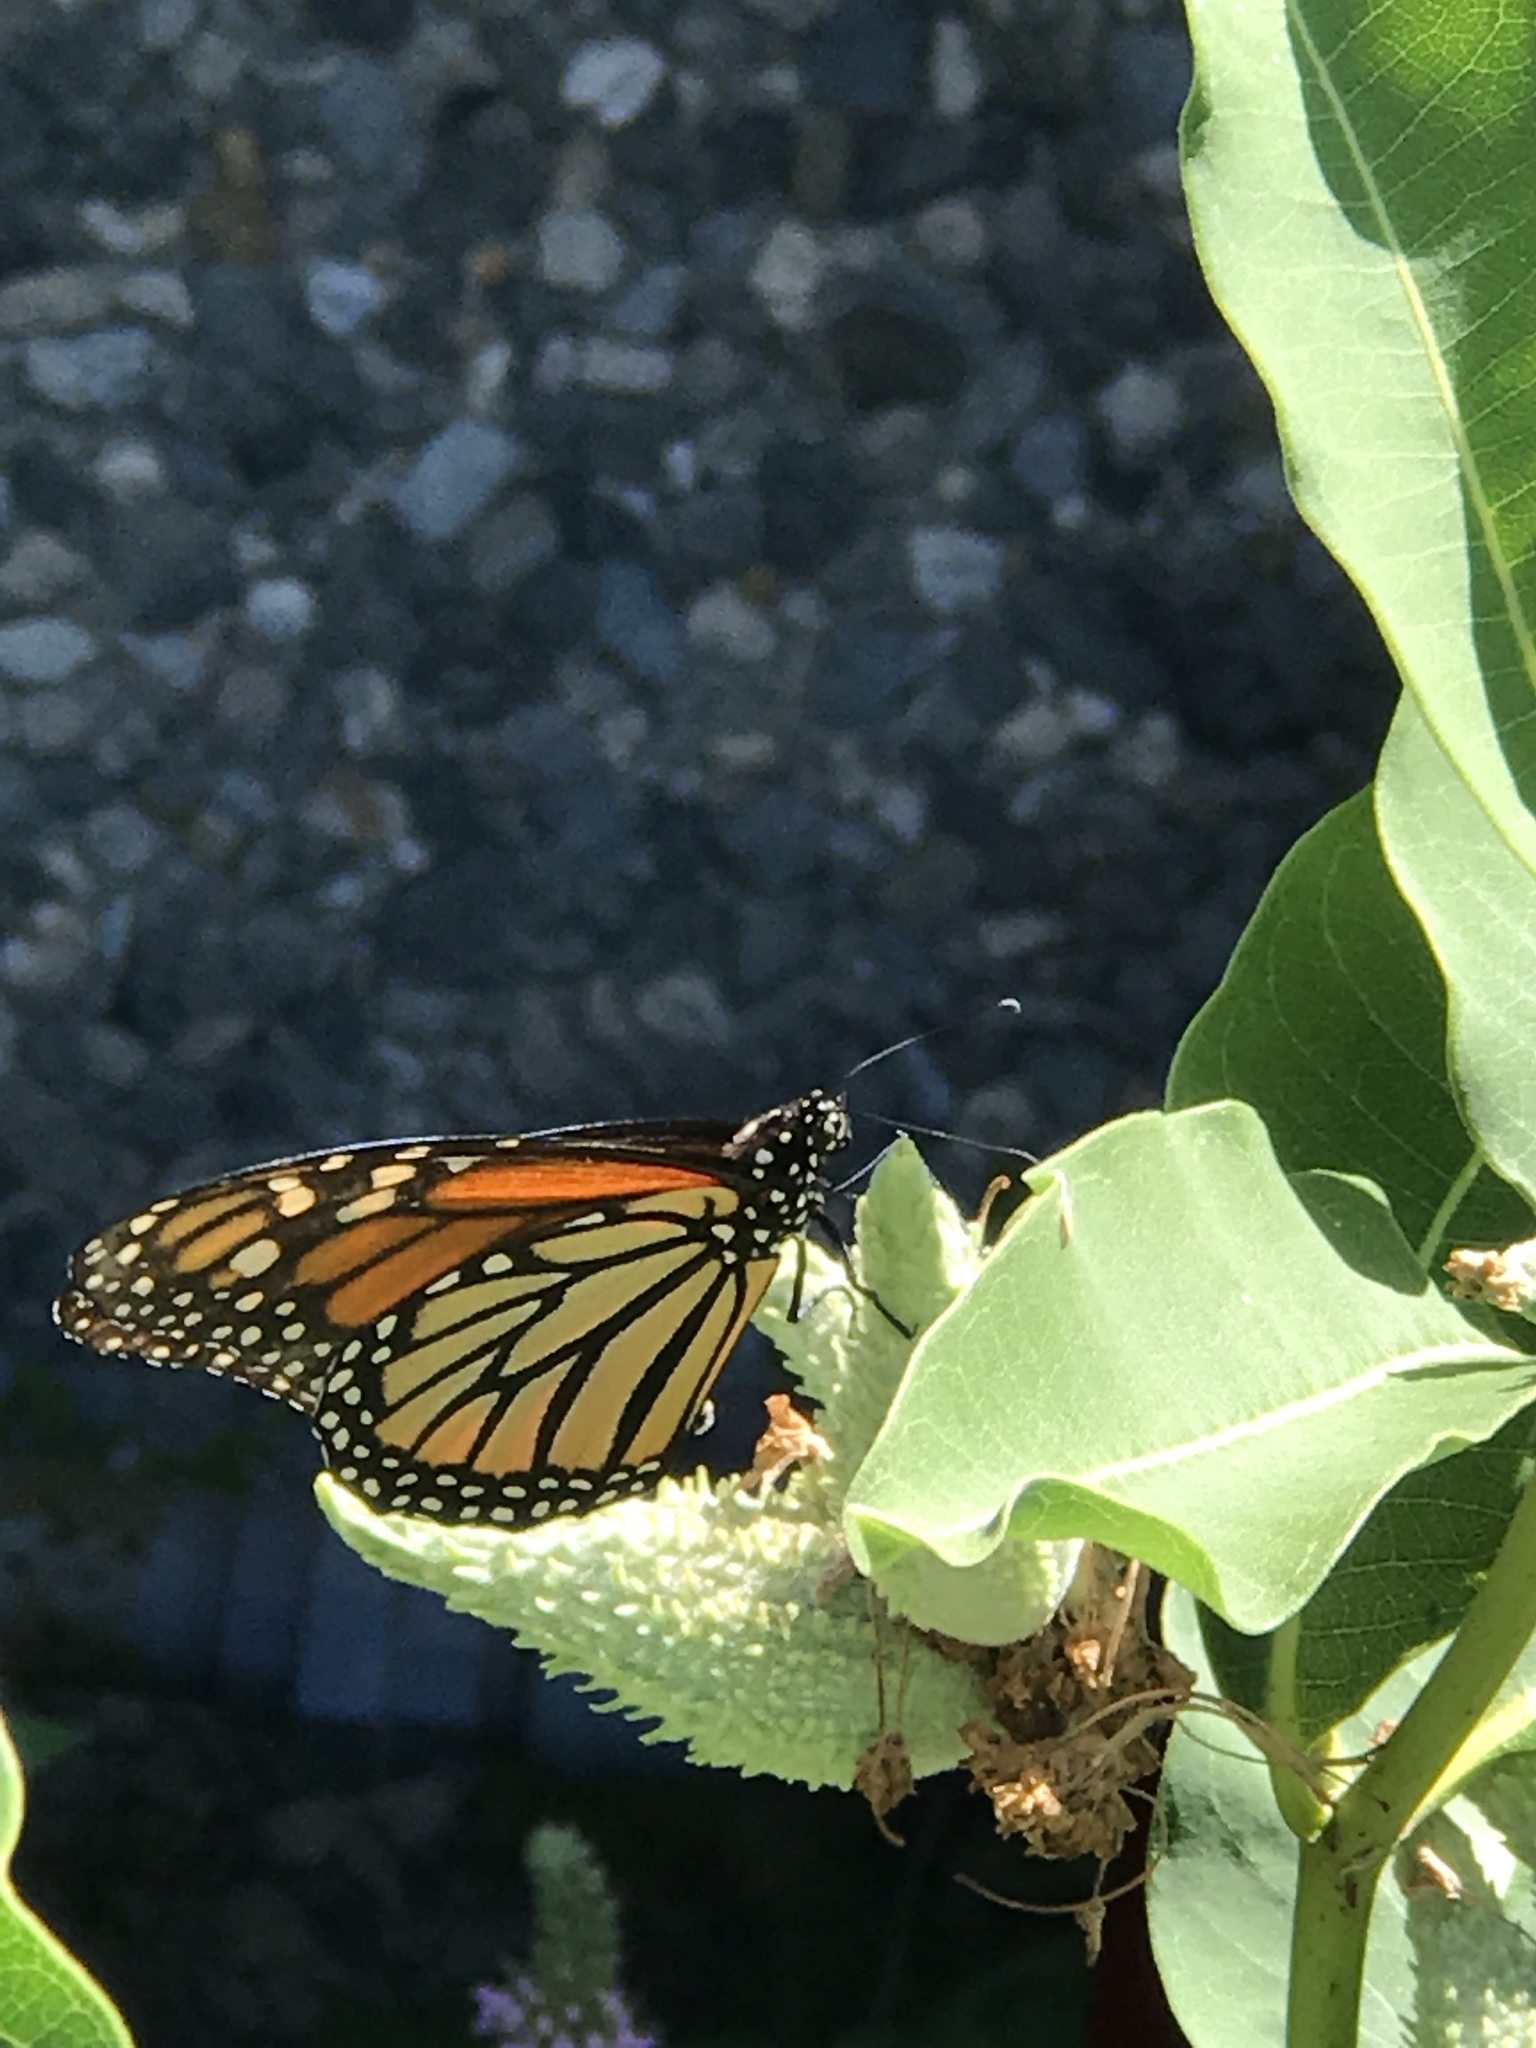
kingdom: Animalia
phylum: Arthropoda
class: Insecta
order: Lepidoptera
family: Nymphalidae
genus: Danaus
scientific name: Danaus plexippus
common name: Monarch
